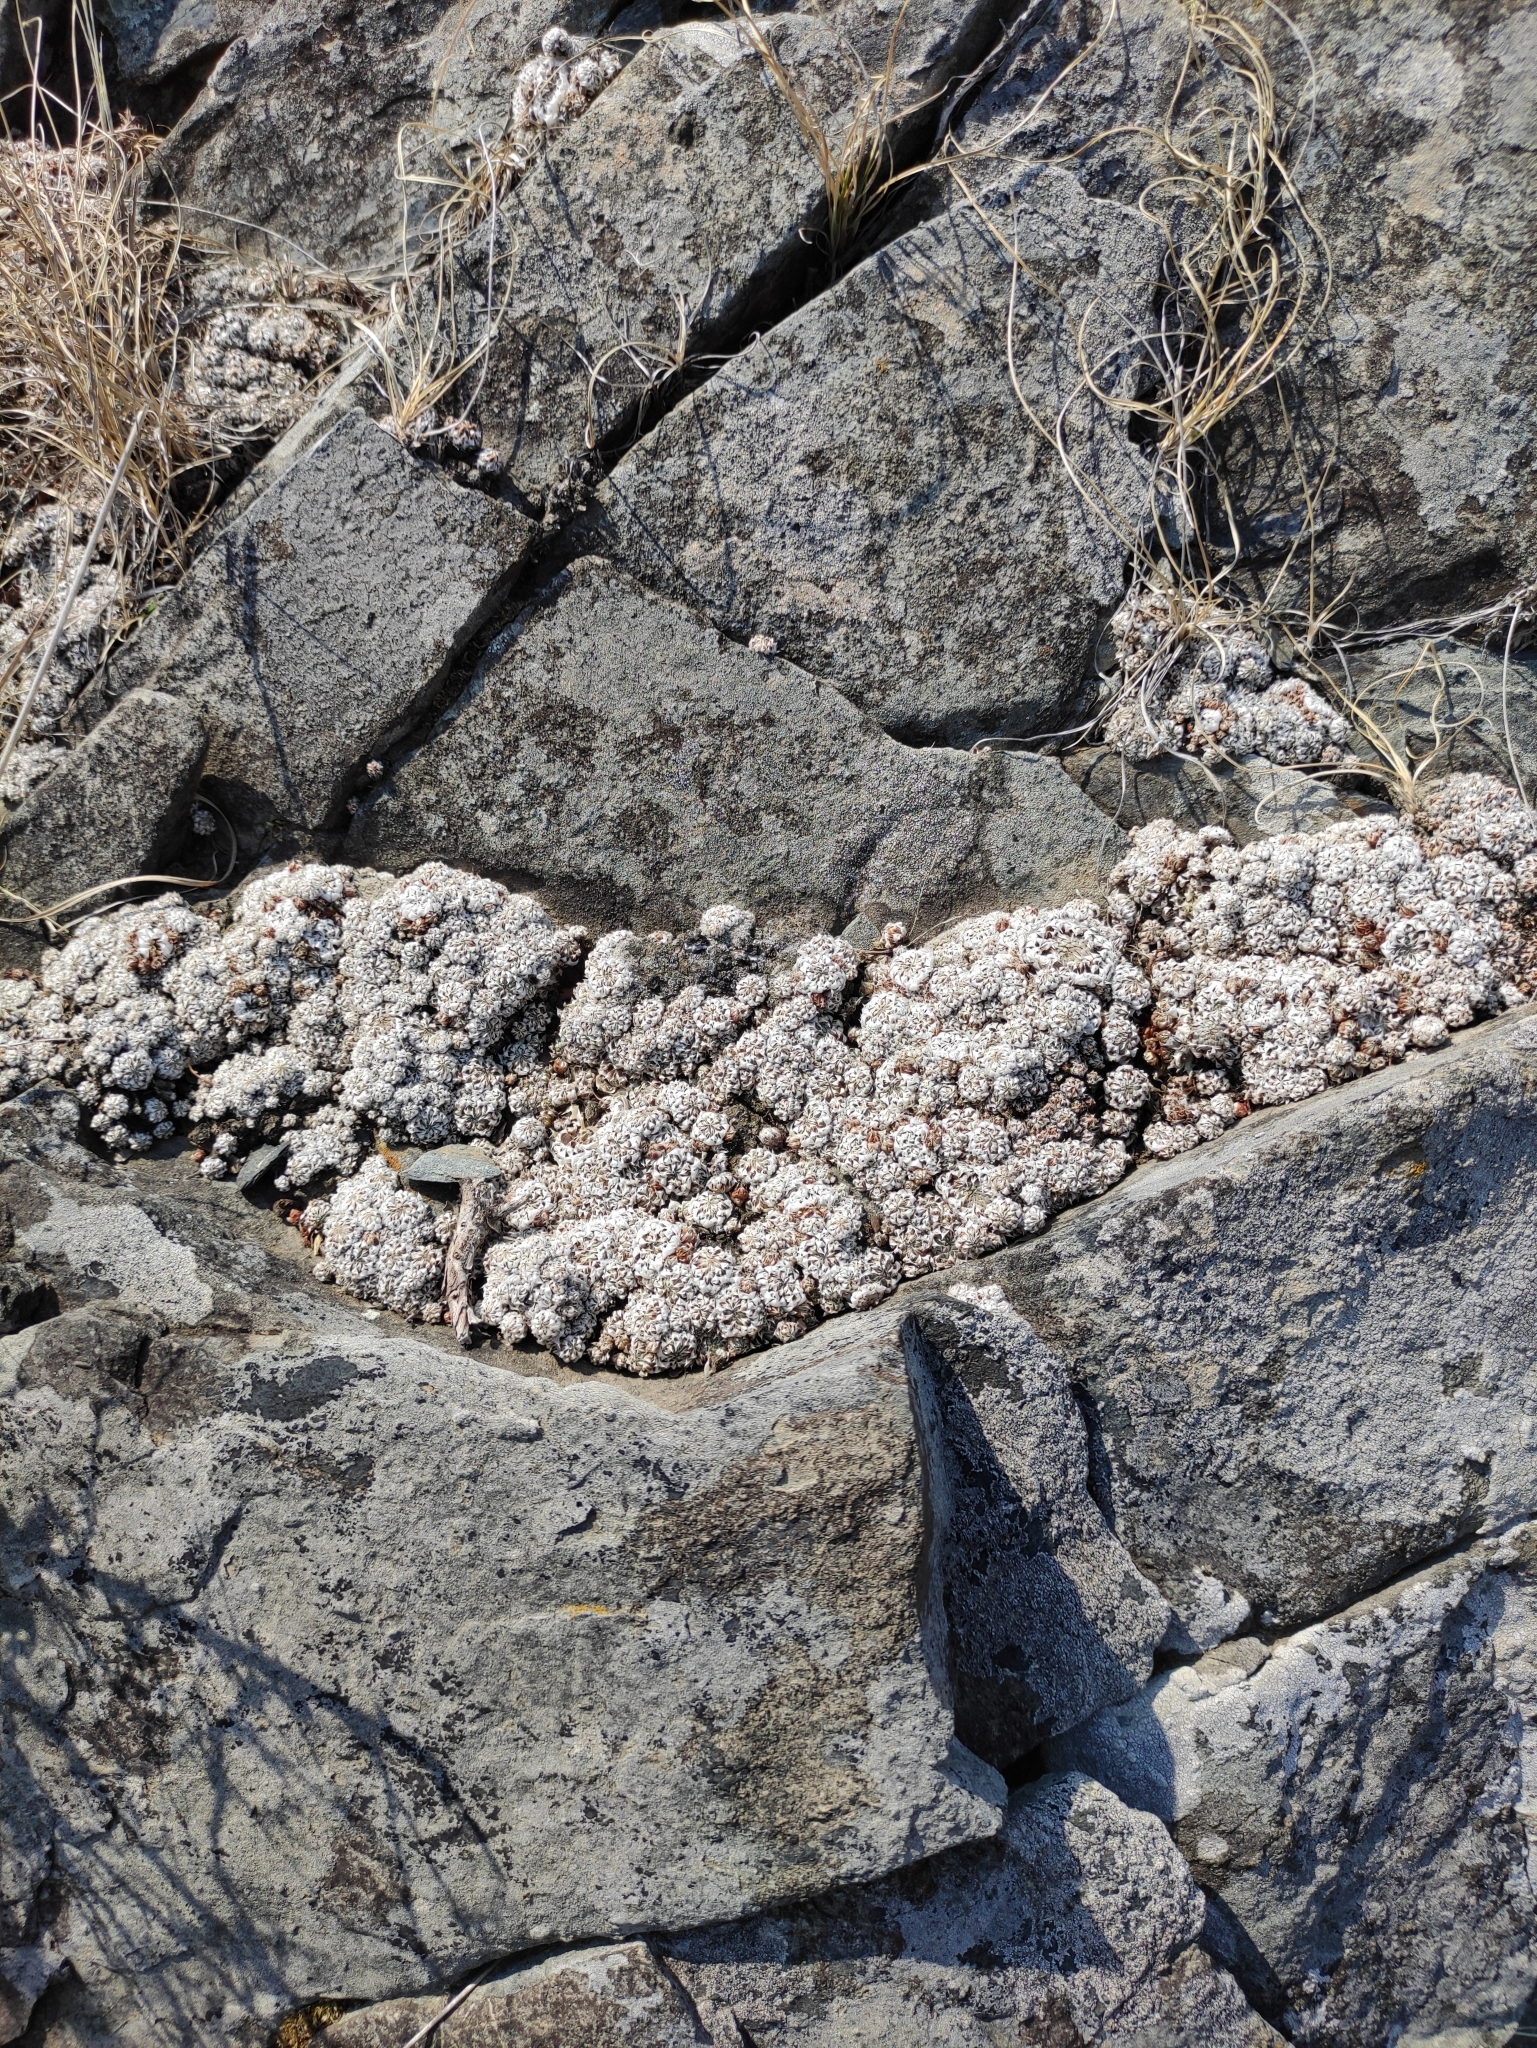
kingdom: Plantae
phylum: Tracheophyta
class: Magnoliopsida
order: Saxifragales
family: Crassulaceae
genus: Orostachys
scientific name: Orostachys spinosa
